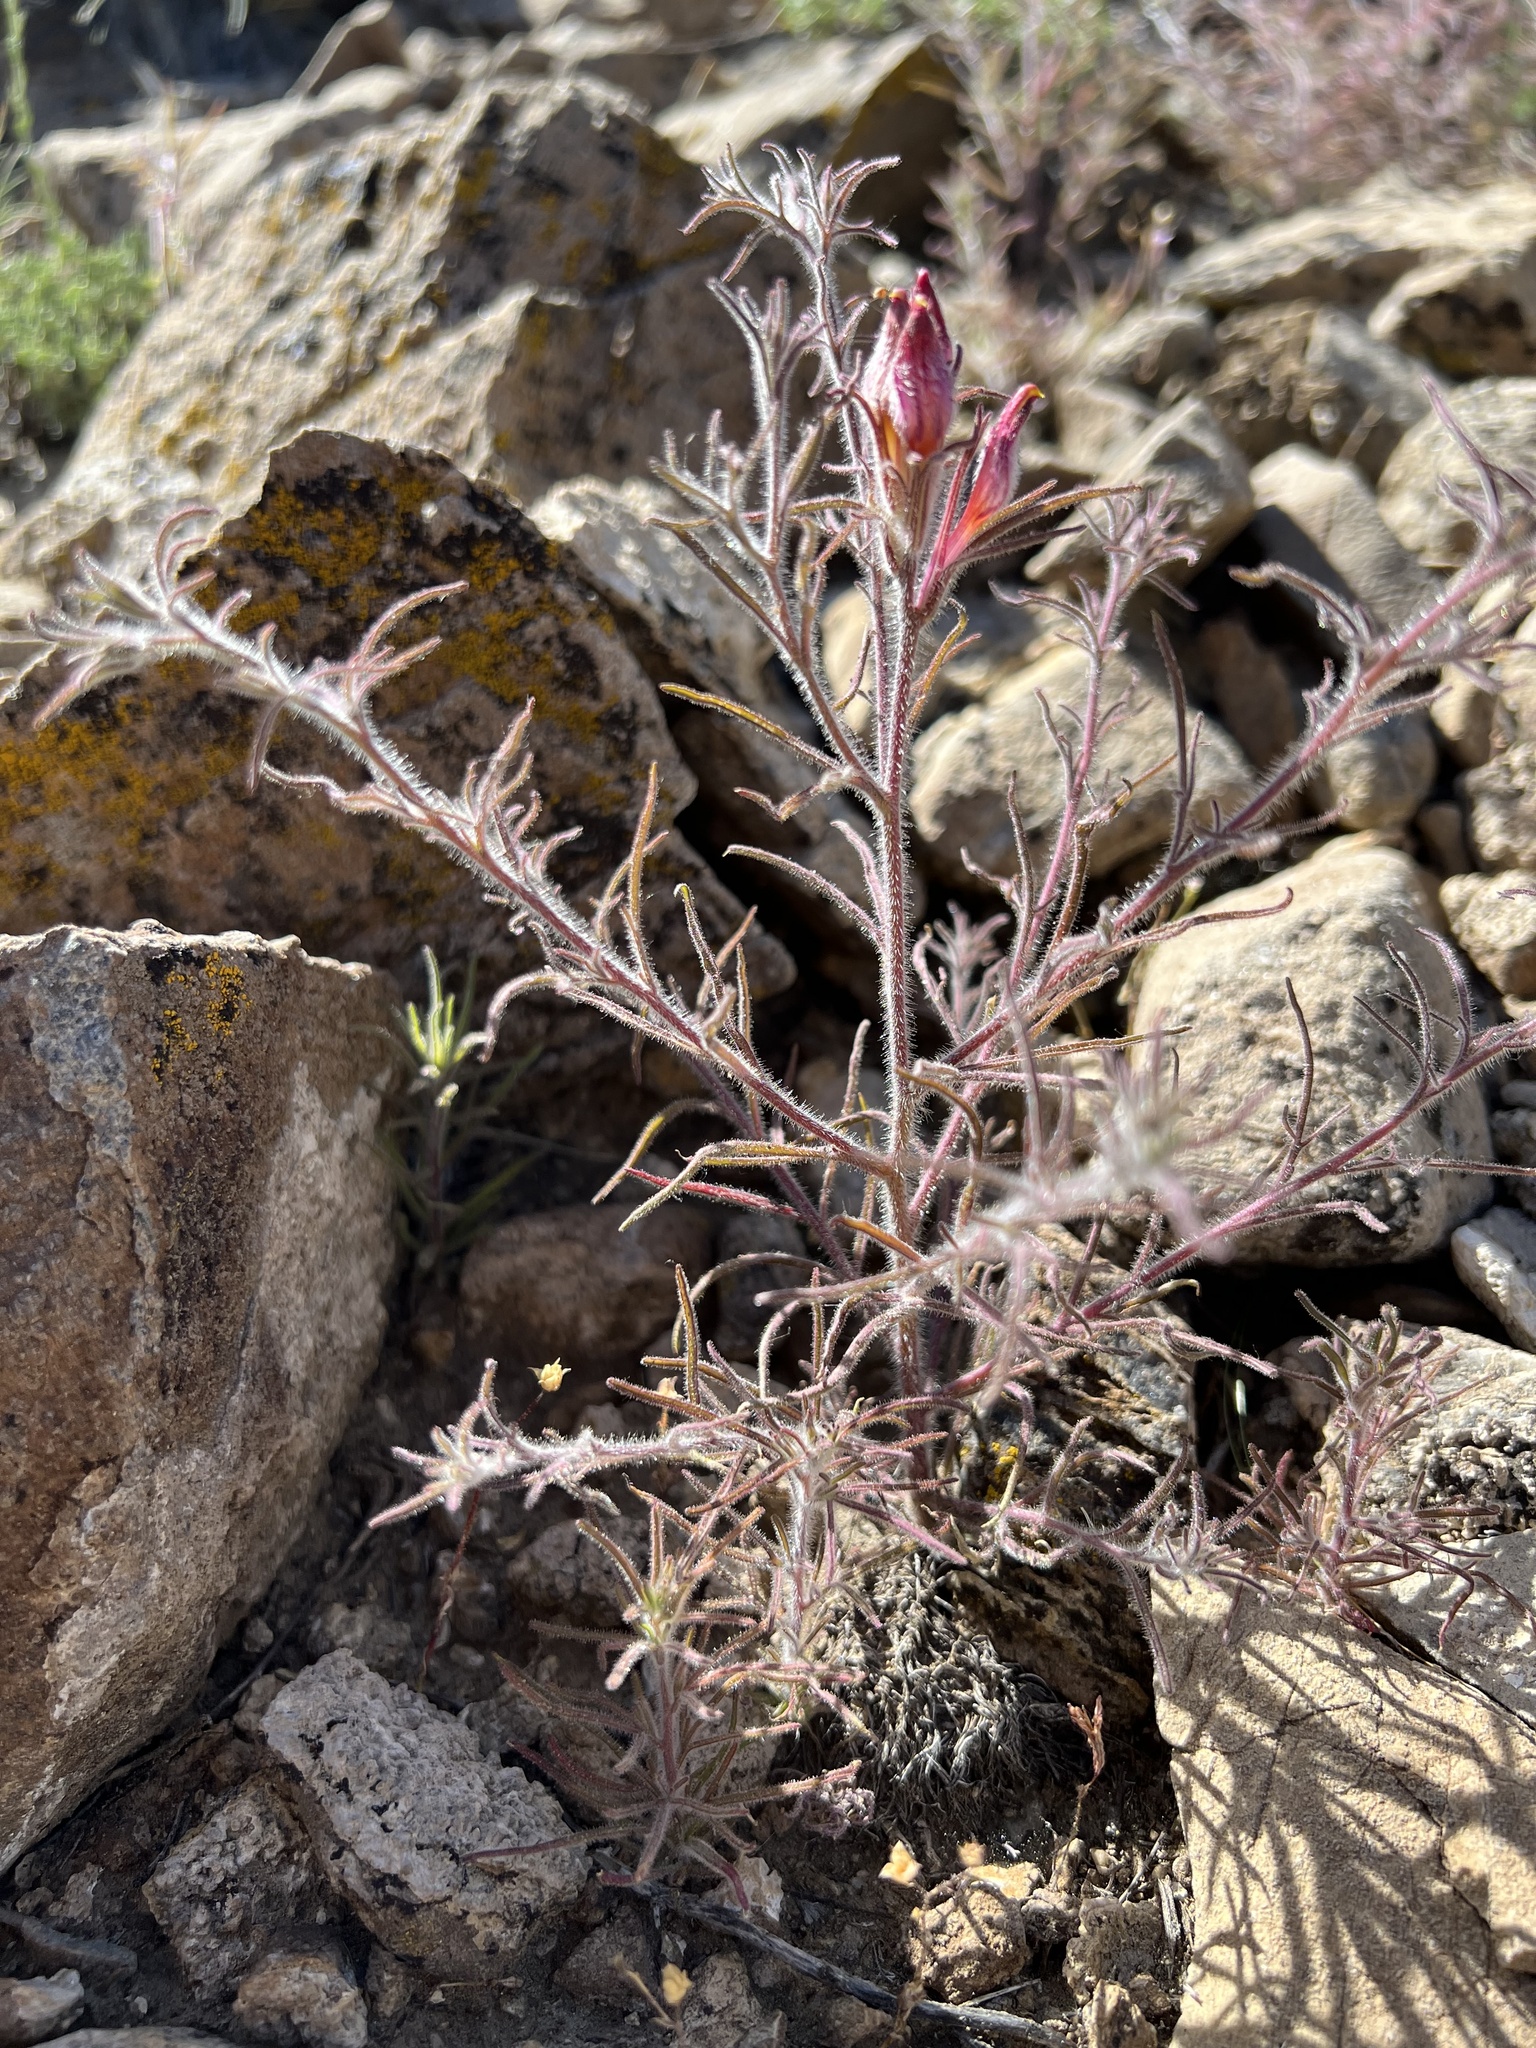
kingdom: Plantae
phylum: Tracheophyta
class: Magnoliopsida
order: Lamiales
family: Orobanchaceae
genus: Cordylanthus
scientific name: Cordylanthus kingii
